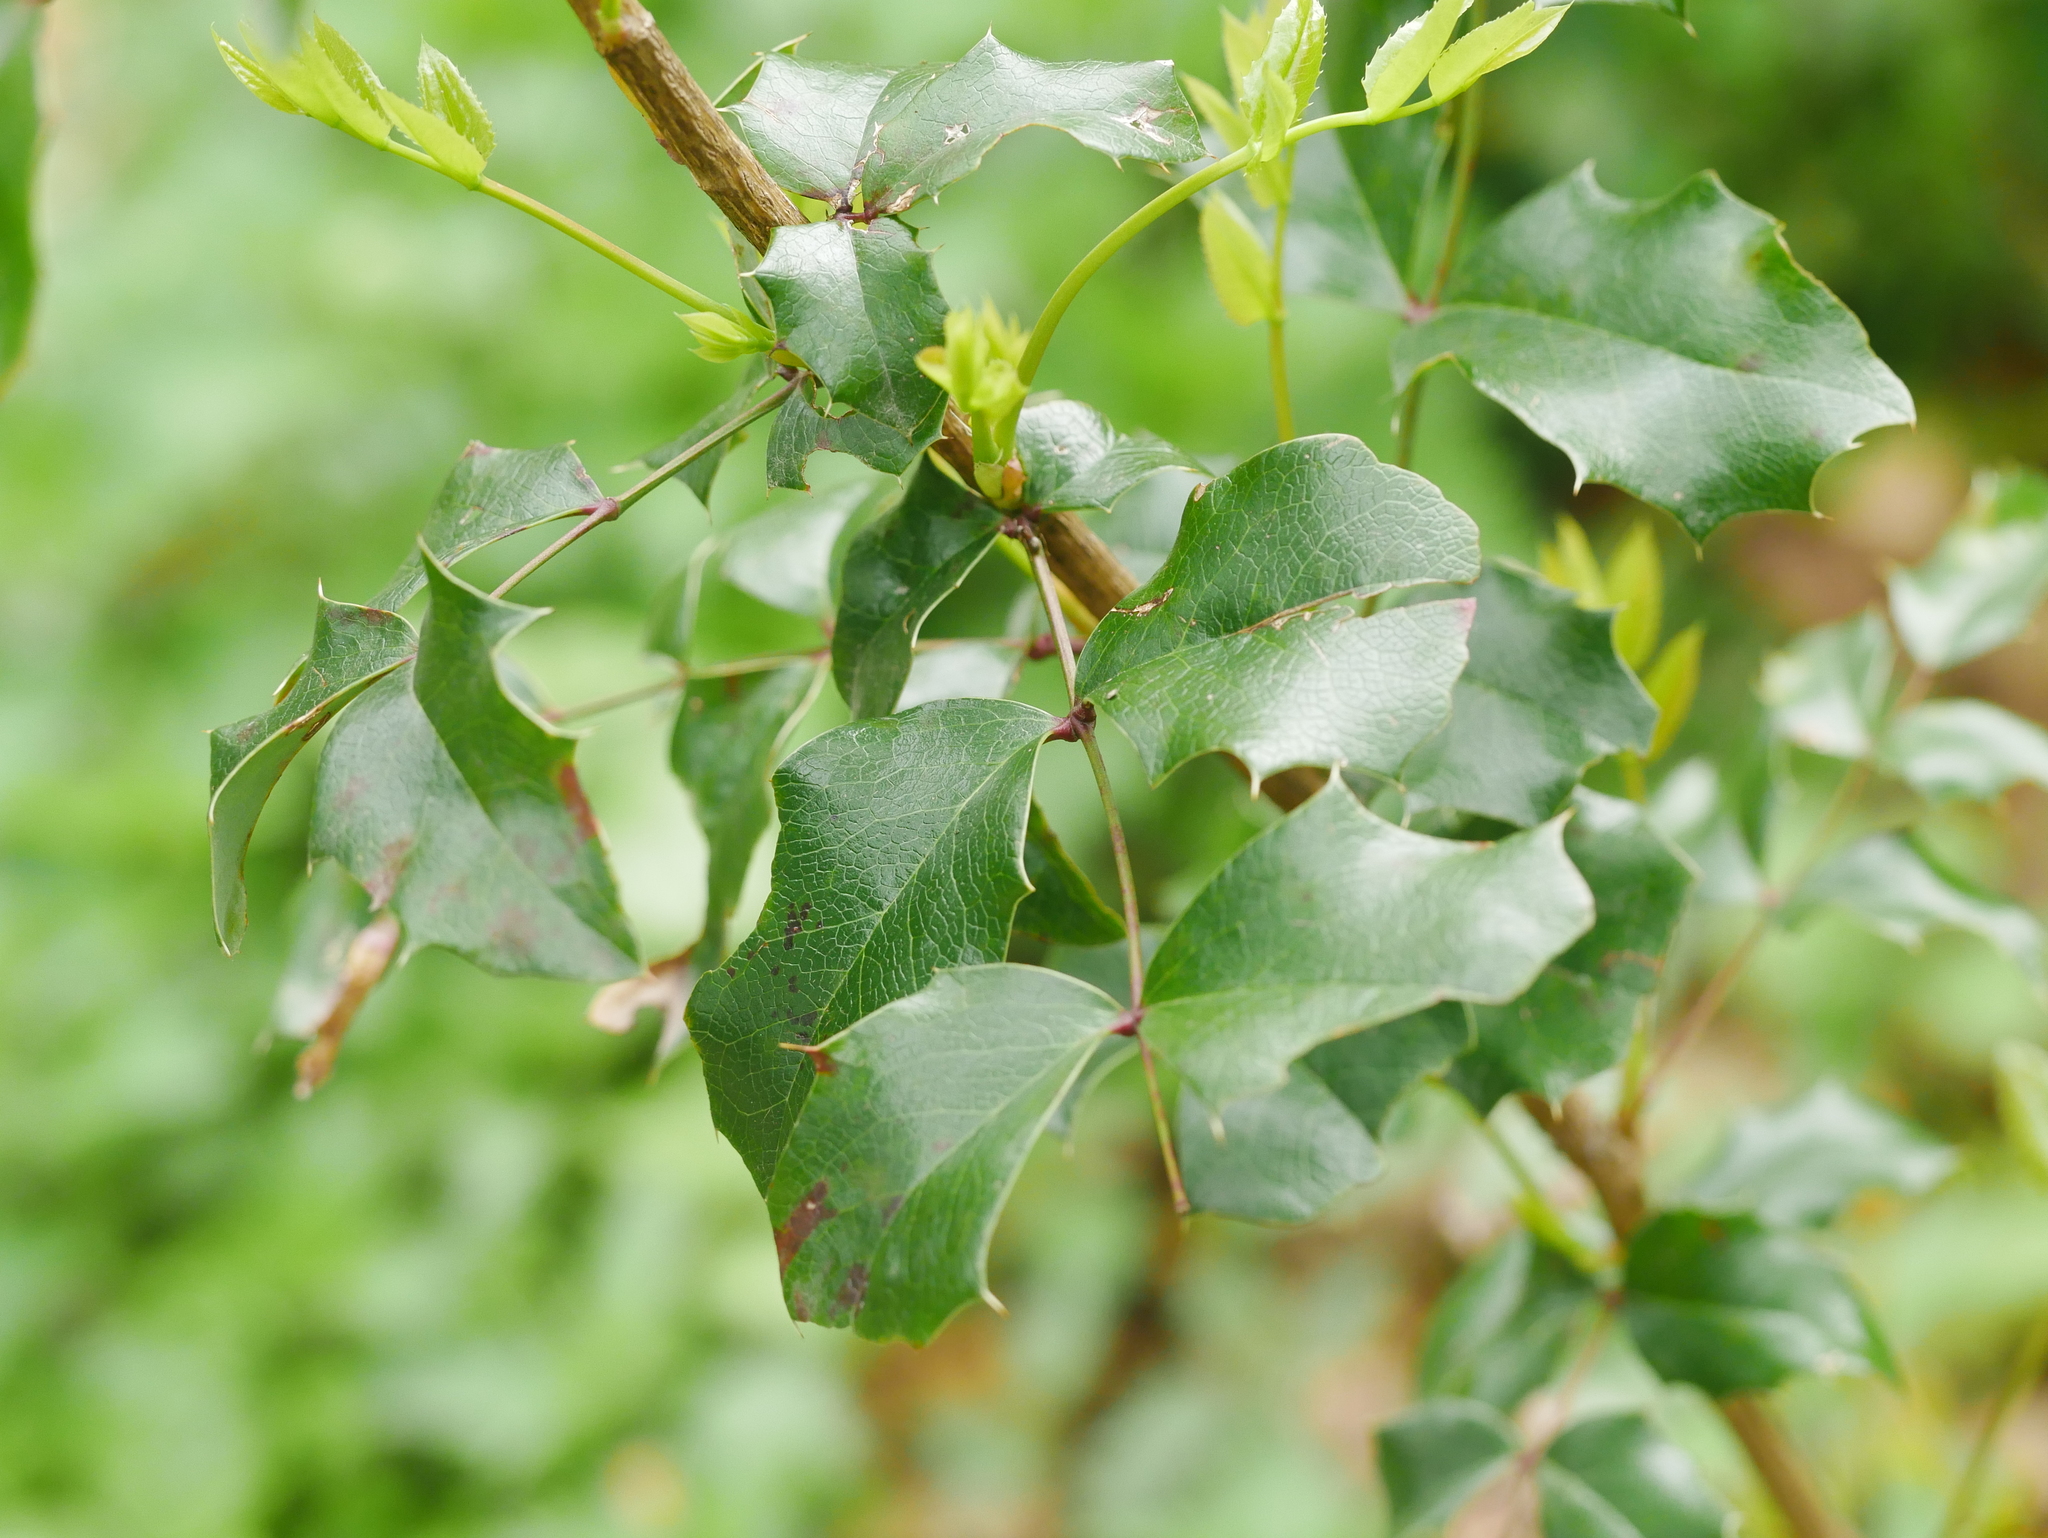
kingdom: Plantae
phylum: Tracheophyta
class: Magnoliopsida
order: Ranunculales
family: Berberidaceae
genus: Mahonia
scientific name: Mahonia aquifolium
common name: Oregon-grape
